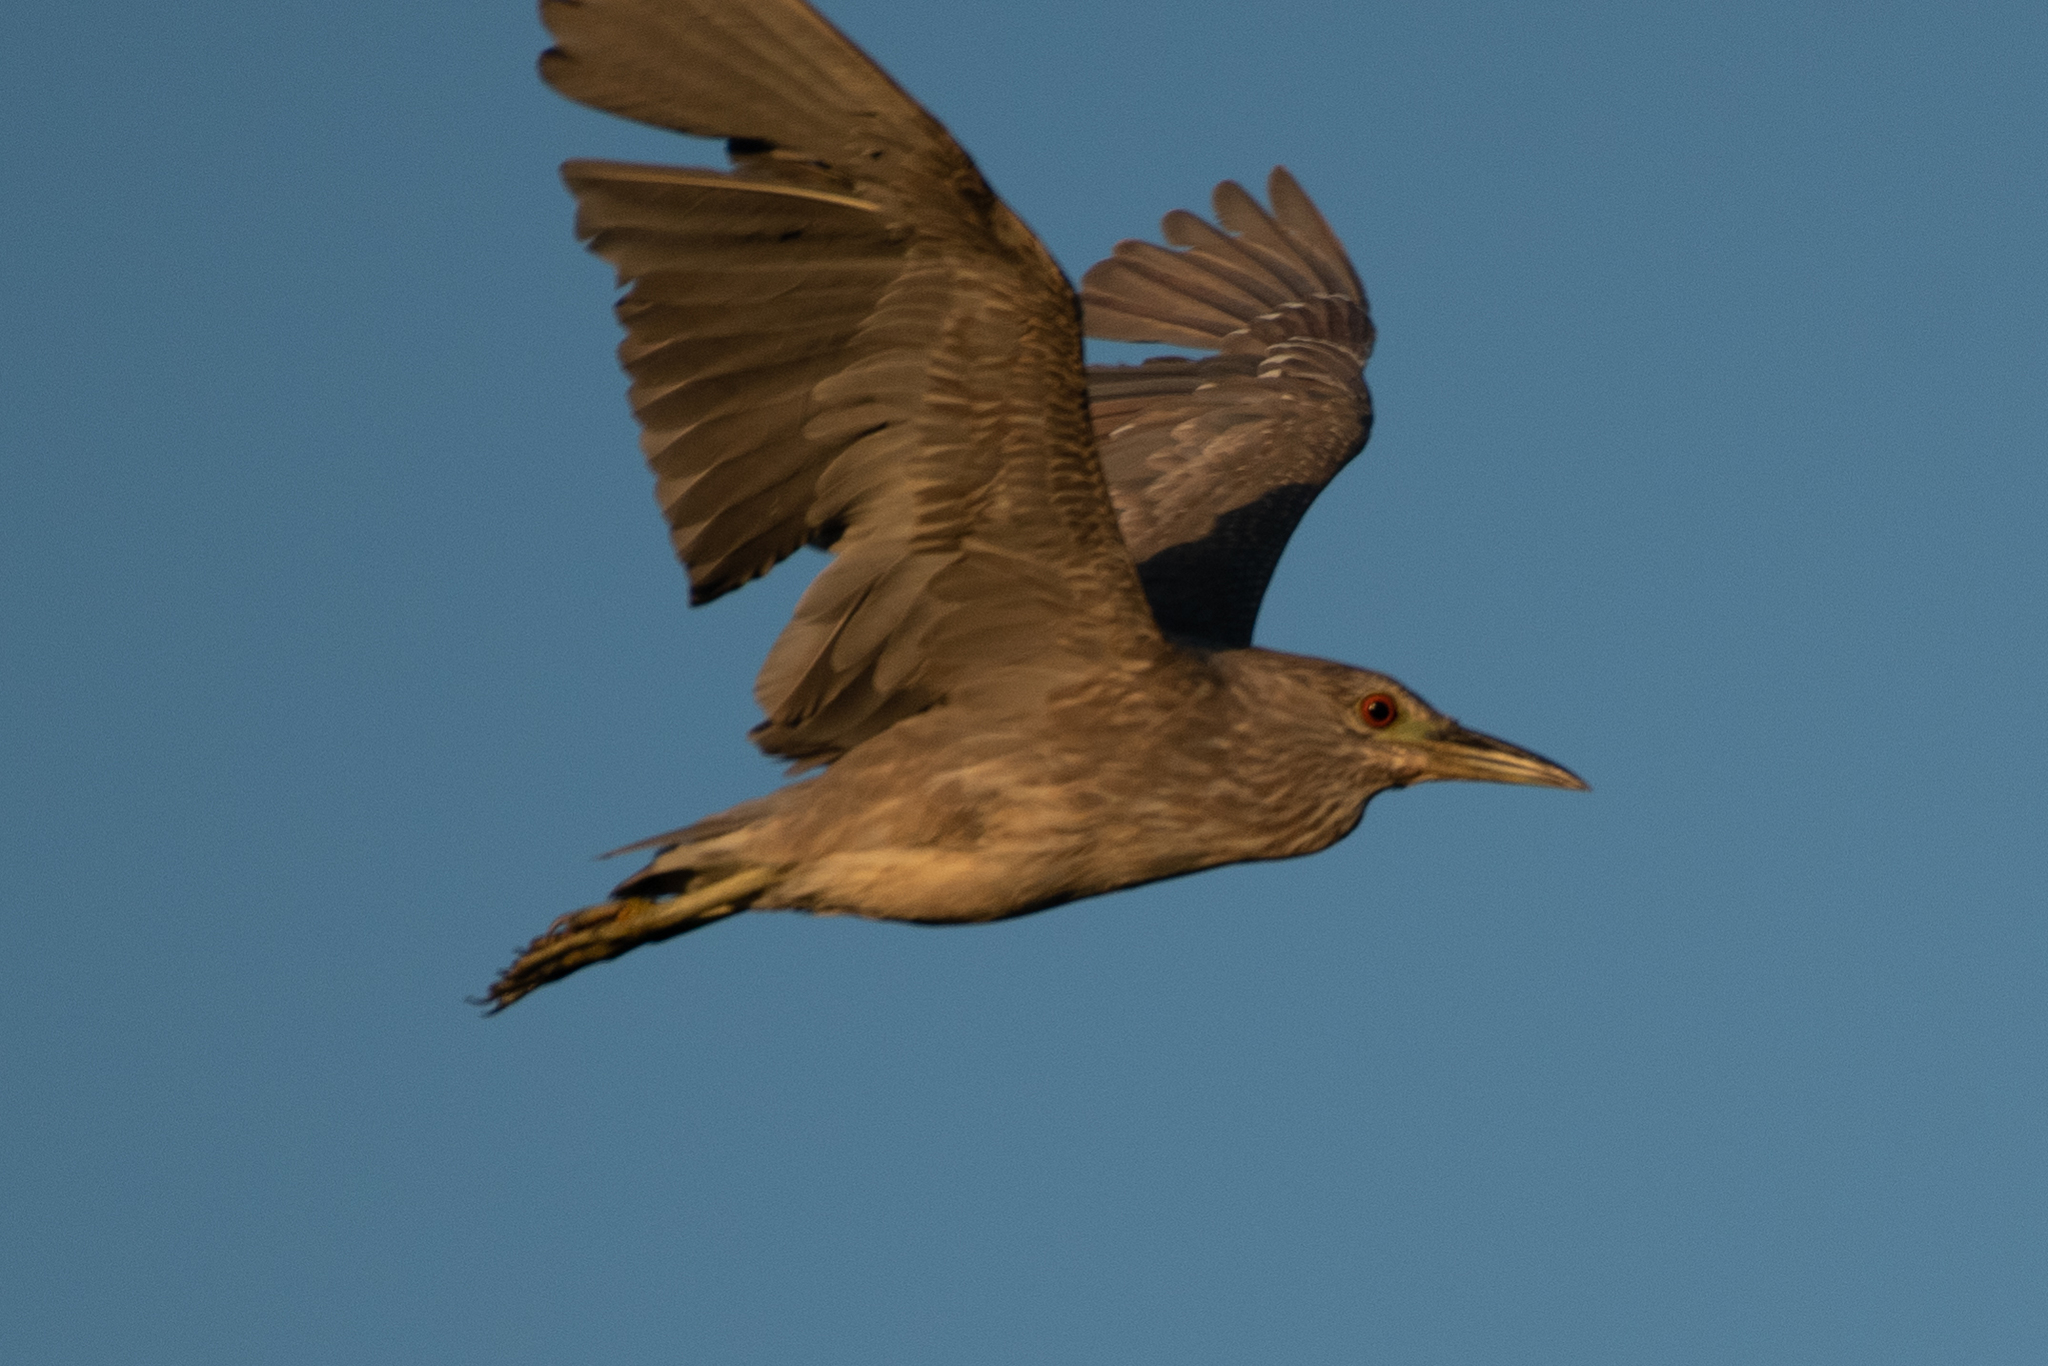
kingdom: Animalia
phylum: Chordata
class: Aves
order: Pelecaniformes
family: Ardeidae
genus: Nycticorax
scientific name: Nycticorax nycticorax
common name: Black-crowned night heron
